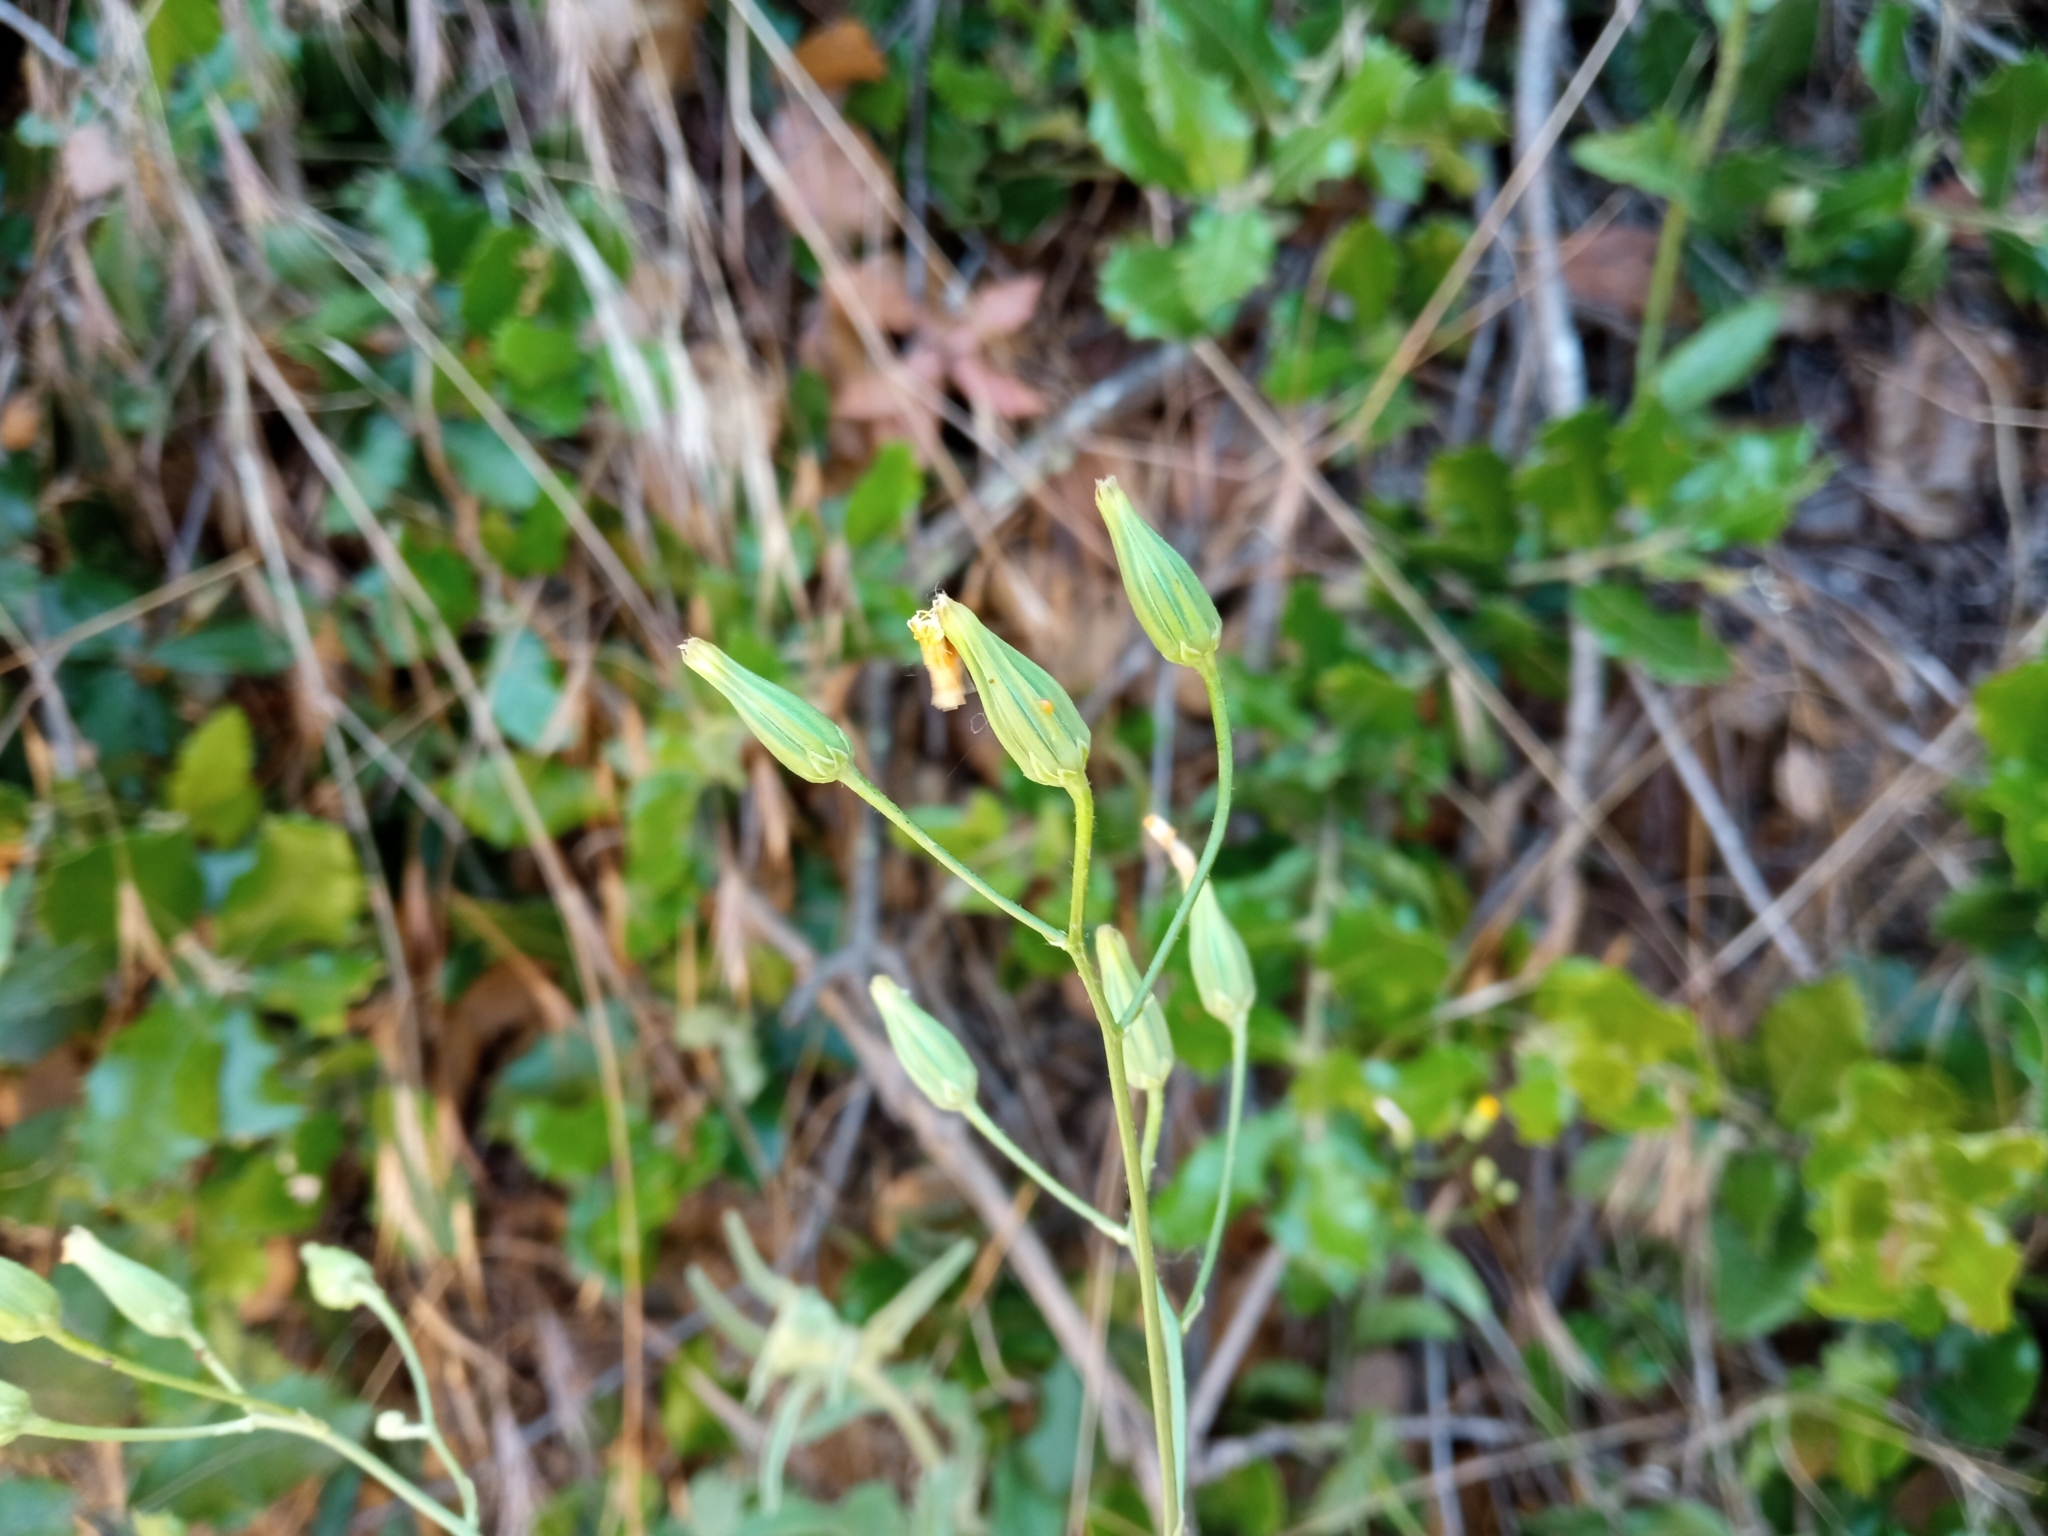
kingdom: Plantae
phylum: Tracheophyta
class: Magnoliopsida
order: Asterales
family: Asteraceae
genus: Crepis
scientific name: Crepis pulchra
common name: Hawk's-beard
